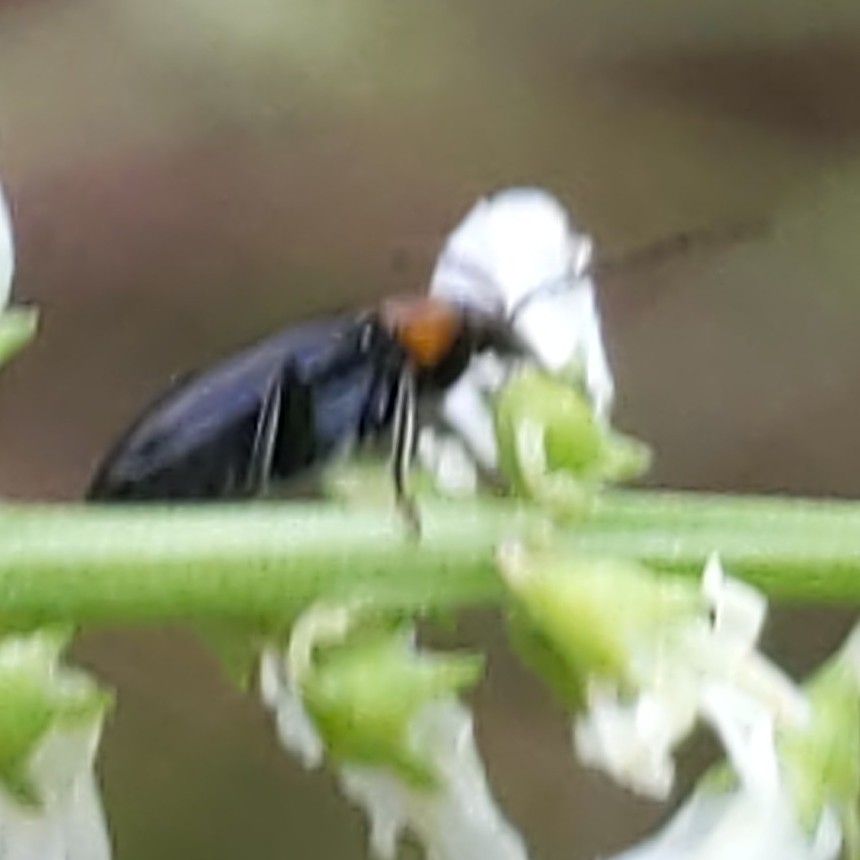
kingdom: Animalia
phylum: Arthropoda
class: Insecta
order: Coleoptera
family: Chrysomelidae
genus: Diabrotica
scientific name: Diabrotica cristata
